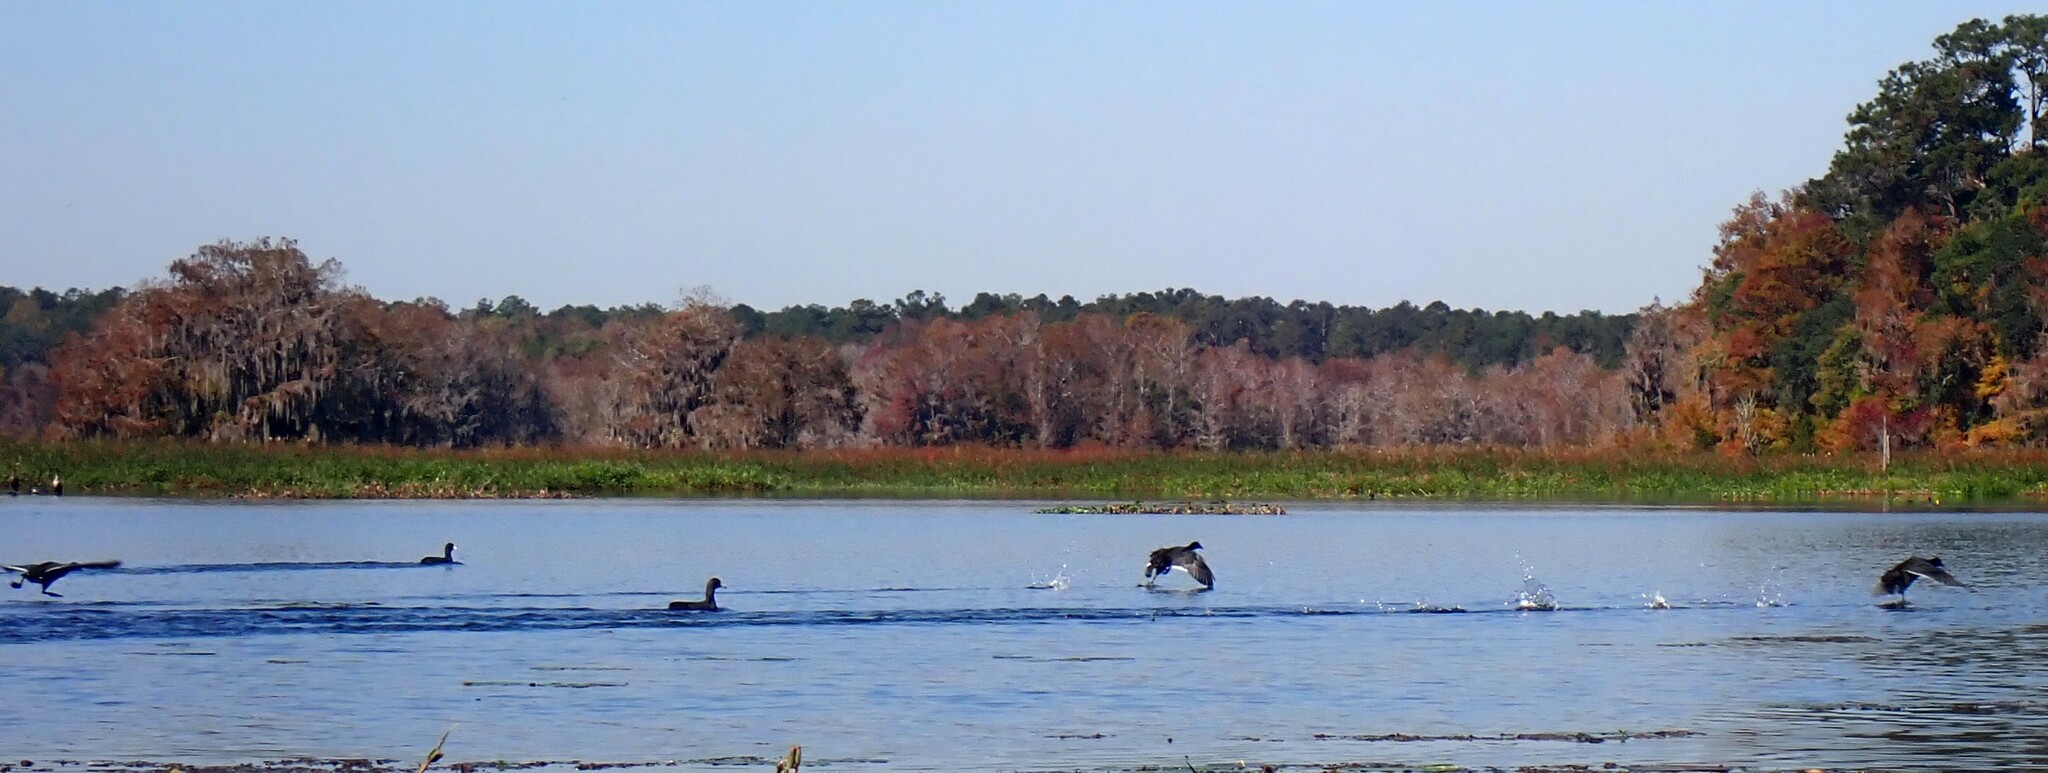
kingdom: Animalia
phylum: Chordata
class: Aves
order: Gruiformes
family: Rallidae
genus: Fulica
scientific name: Fulica americana
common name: American coot
